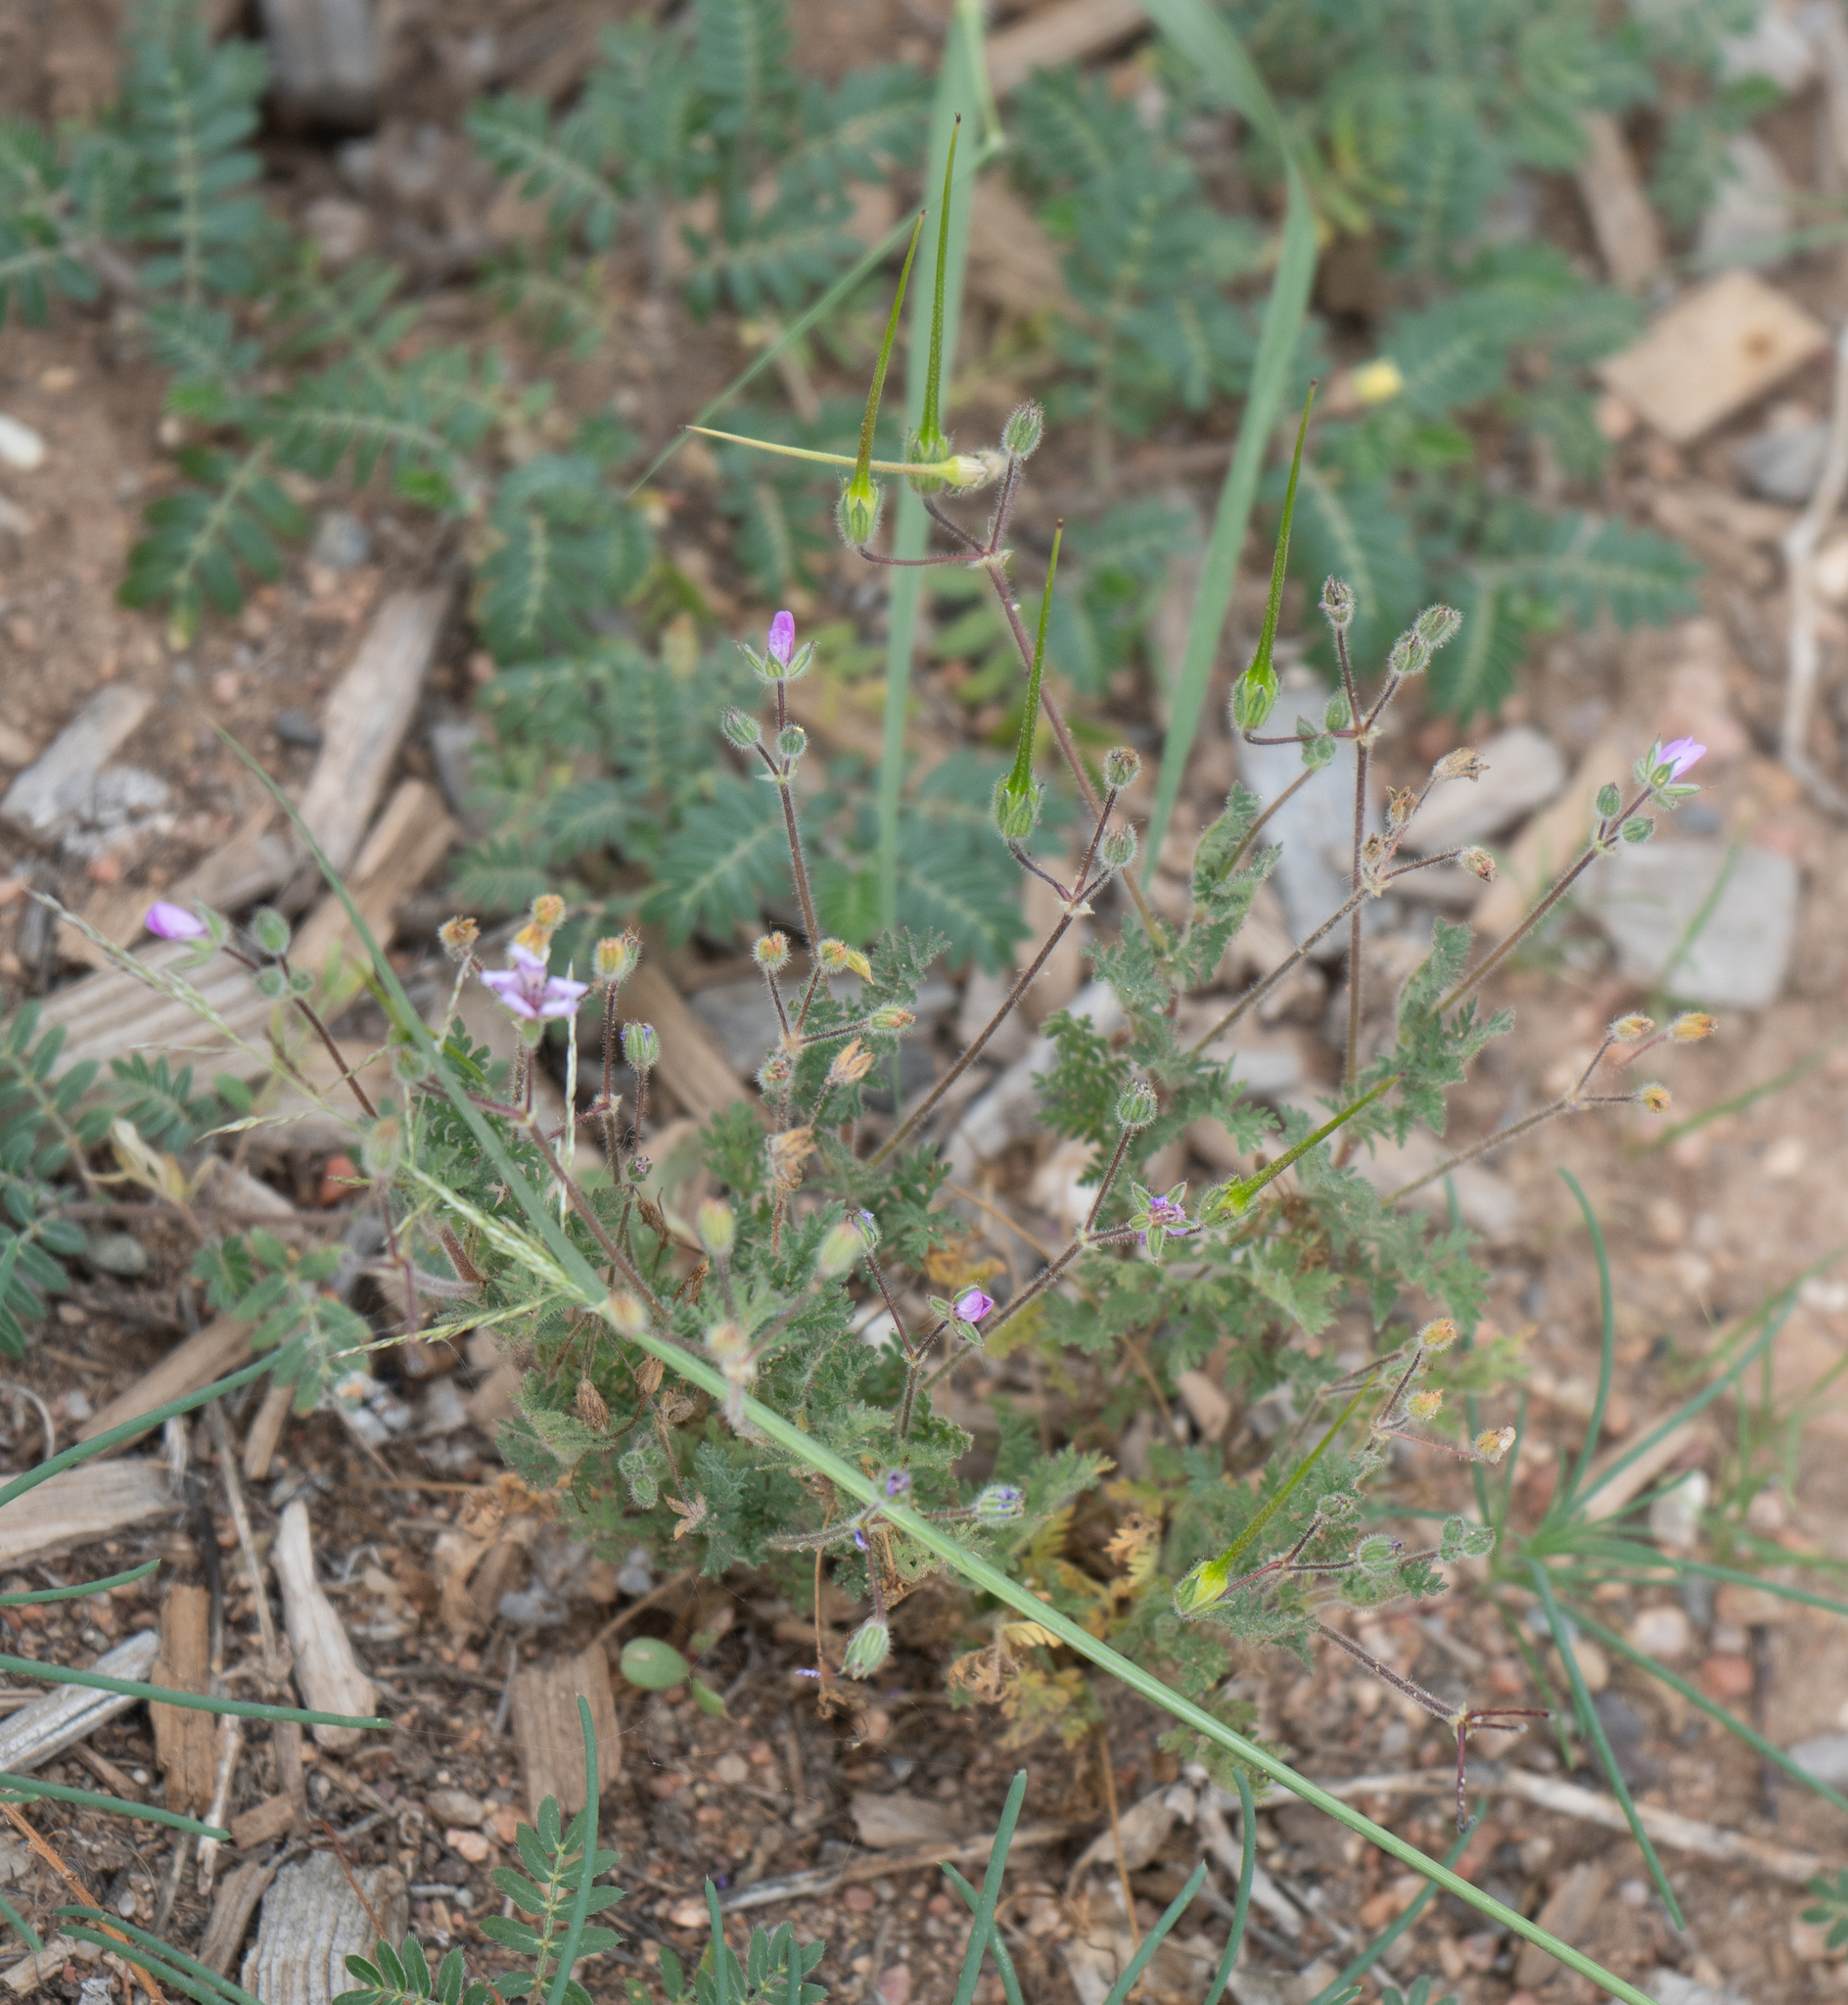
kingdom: Plantae
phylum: Tracheophyta
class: Magnoliopsida
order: Geraniales
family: Geraniaceae
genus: Erodium
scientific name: Erodium cicutarium
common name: Common stork's-bill
